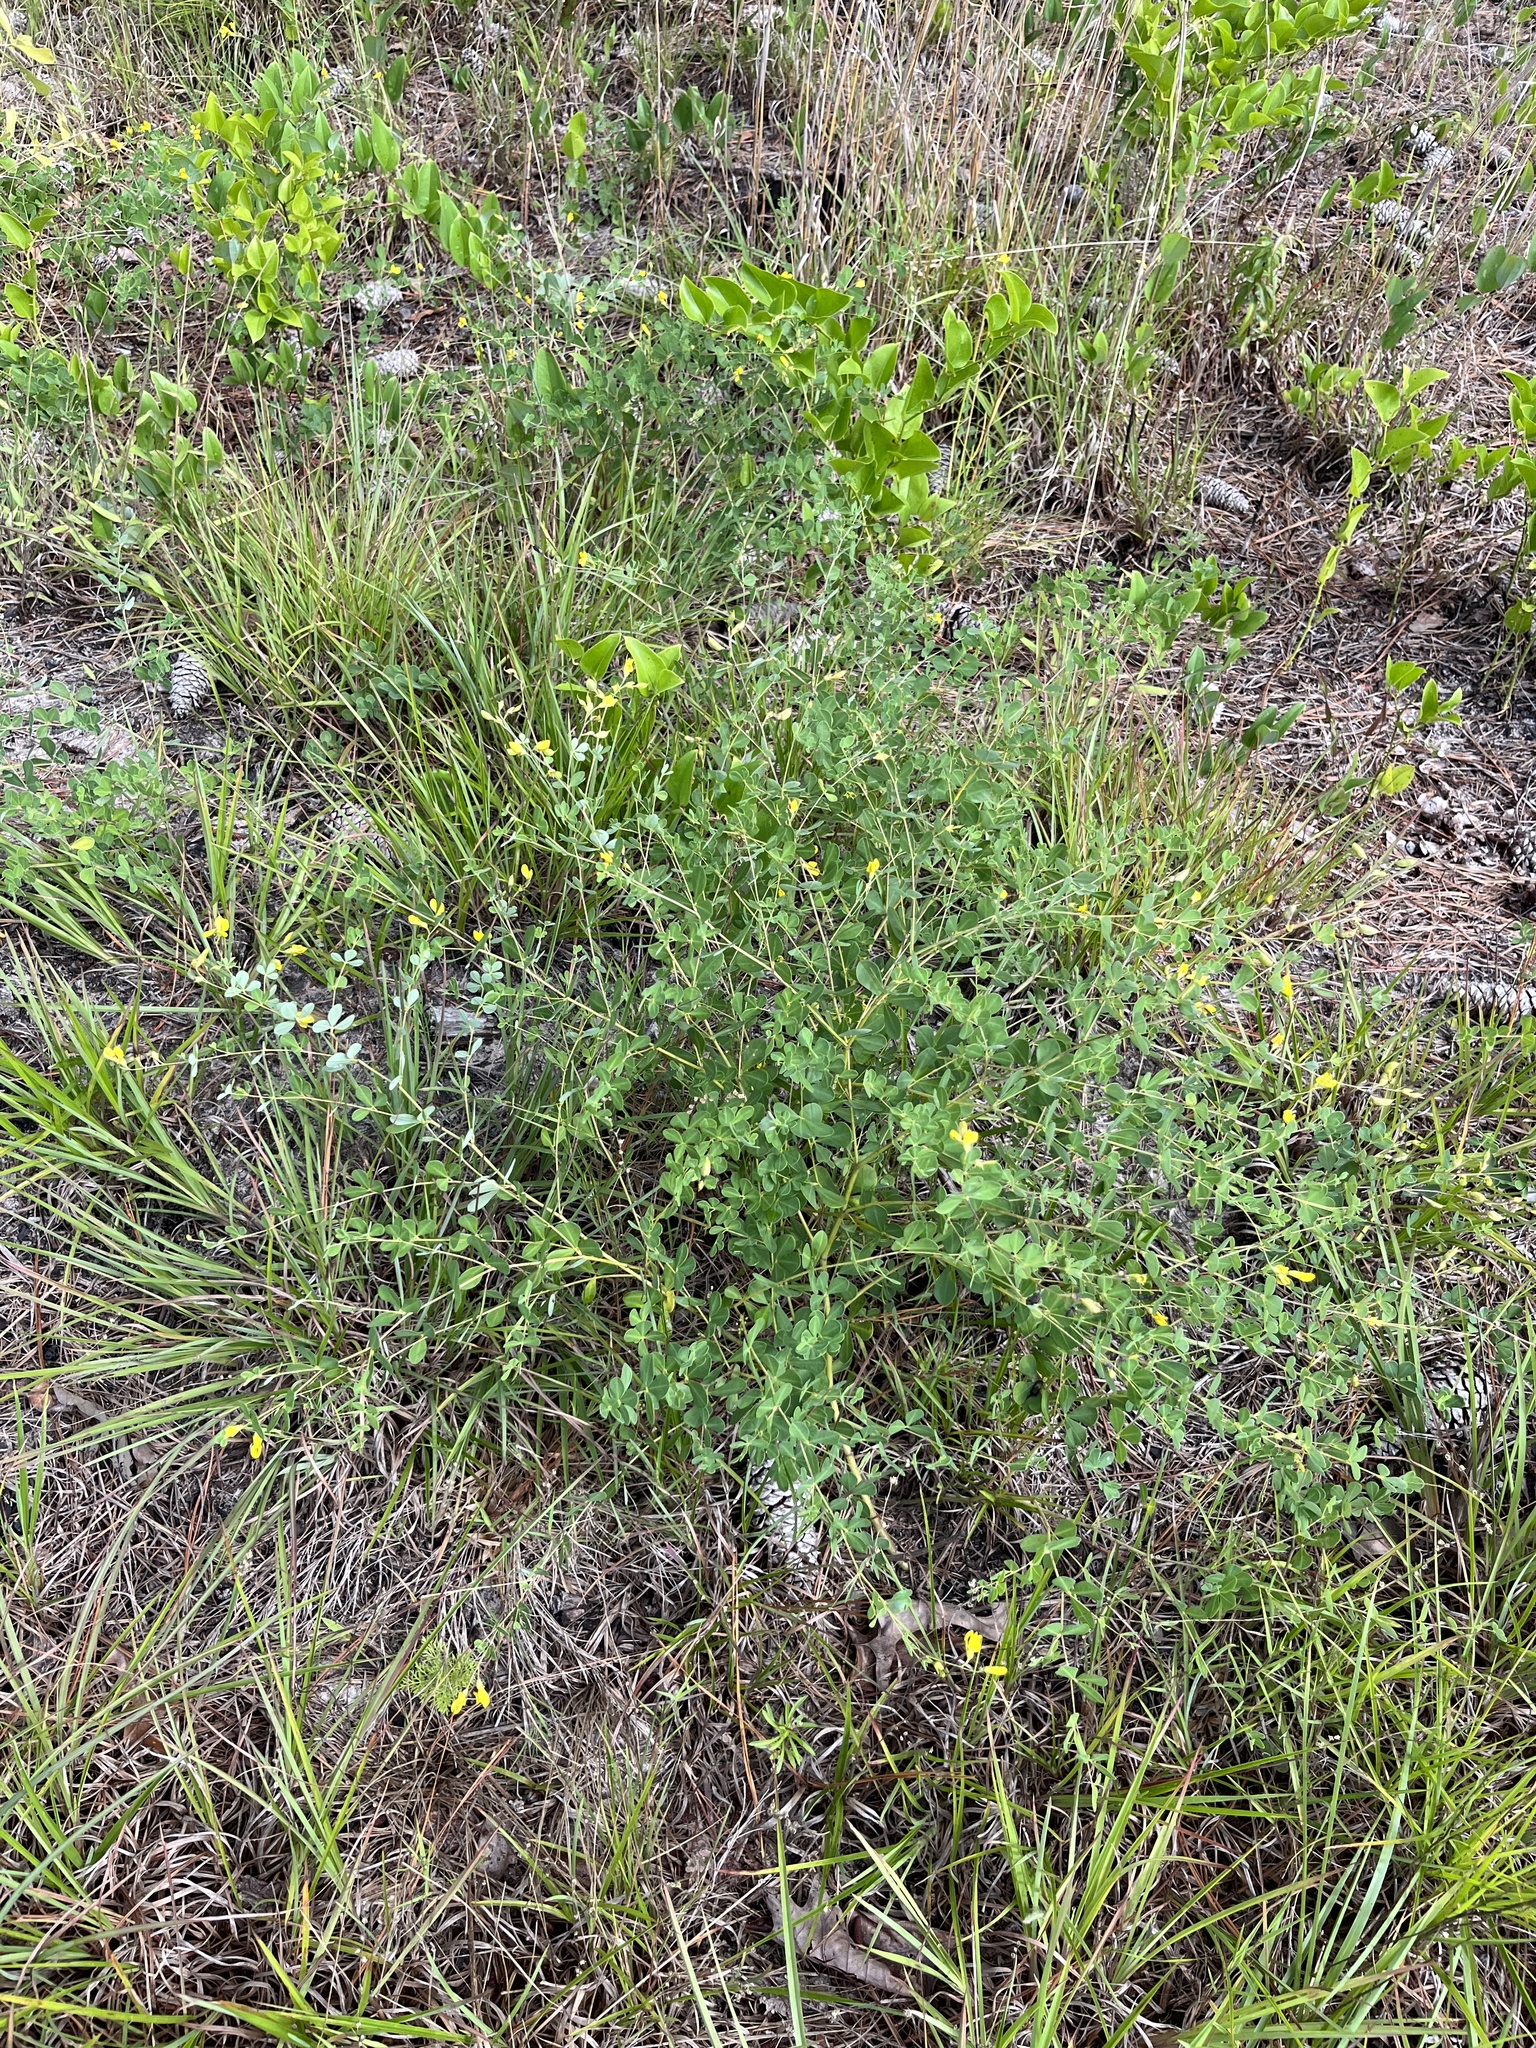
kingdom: Plantae
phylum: Tracheophyta
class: Magnoliopsida
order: Fabales
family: Fabaceae
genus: Baptisia
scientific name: Baptisia tinctoria
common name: Wild indigo
